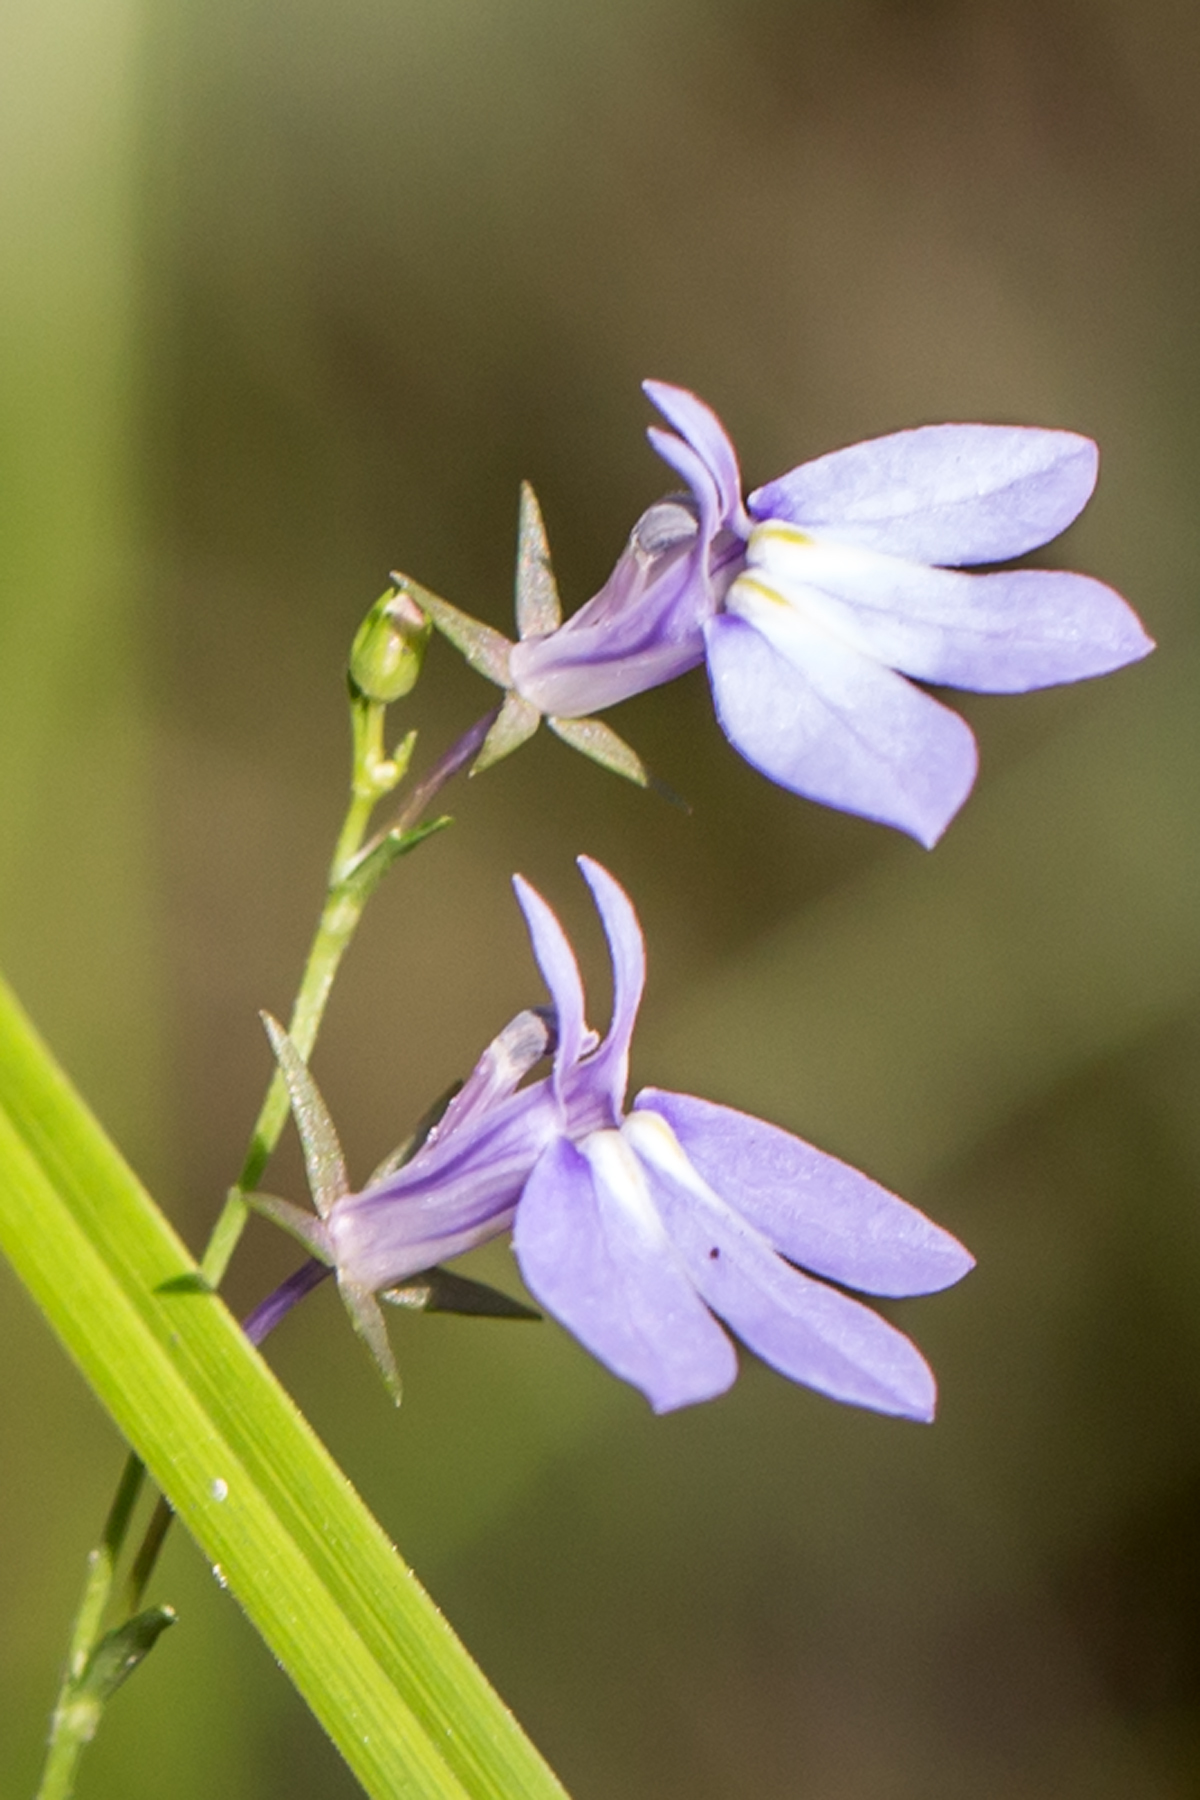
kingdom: Plantae
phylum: Tracheophyta
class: Magnoliopsida
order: Asterales
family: Campanulaceae
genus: Lobelia
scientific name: Lobelia nuttallii
